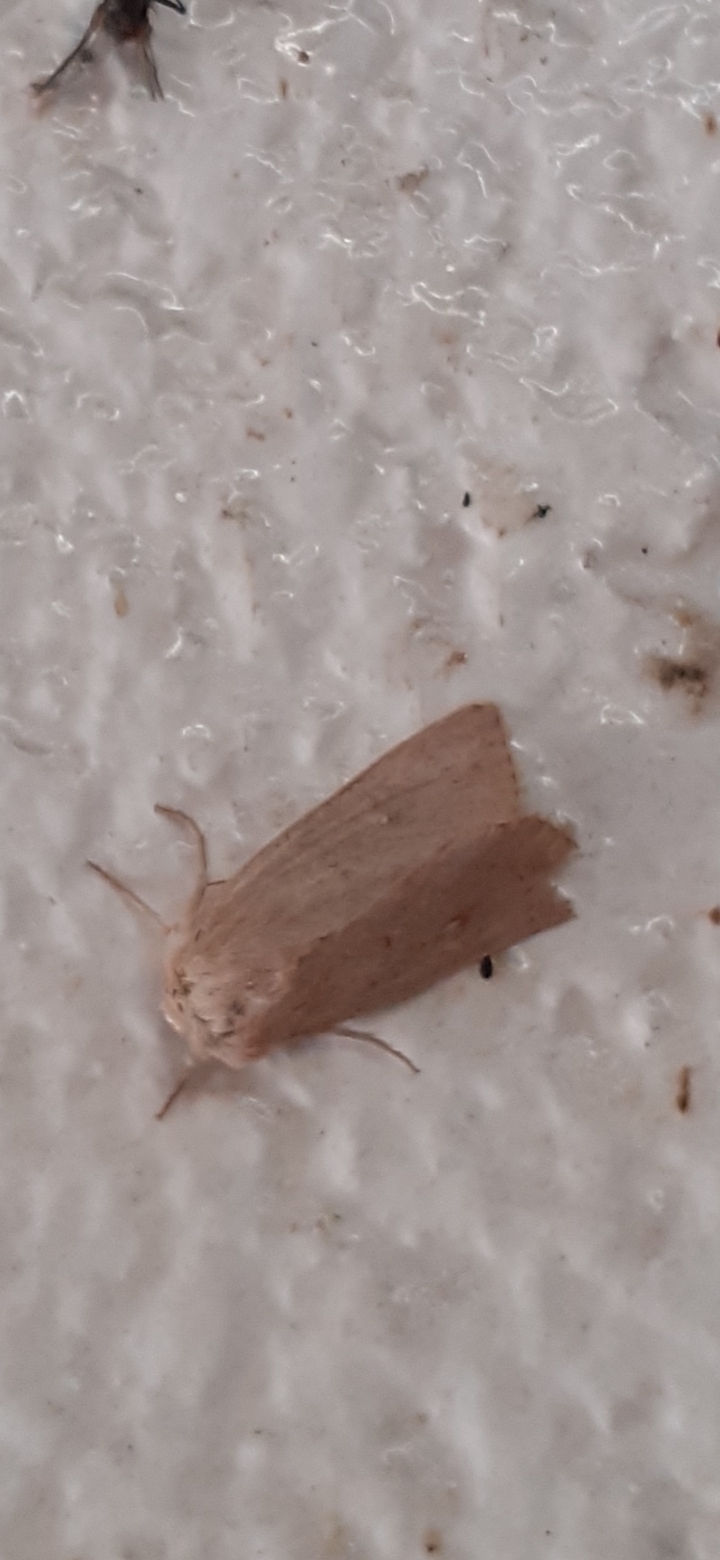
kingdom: Animalia
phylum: Arthropoda
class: Insecta
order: Lepidoptera
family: Noctuidae
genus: Mythimna
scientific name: Mythimna ferrago
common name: Clay
